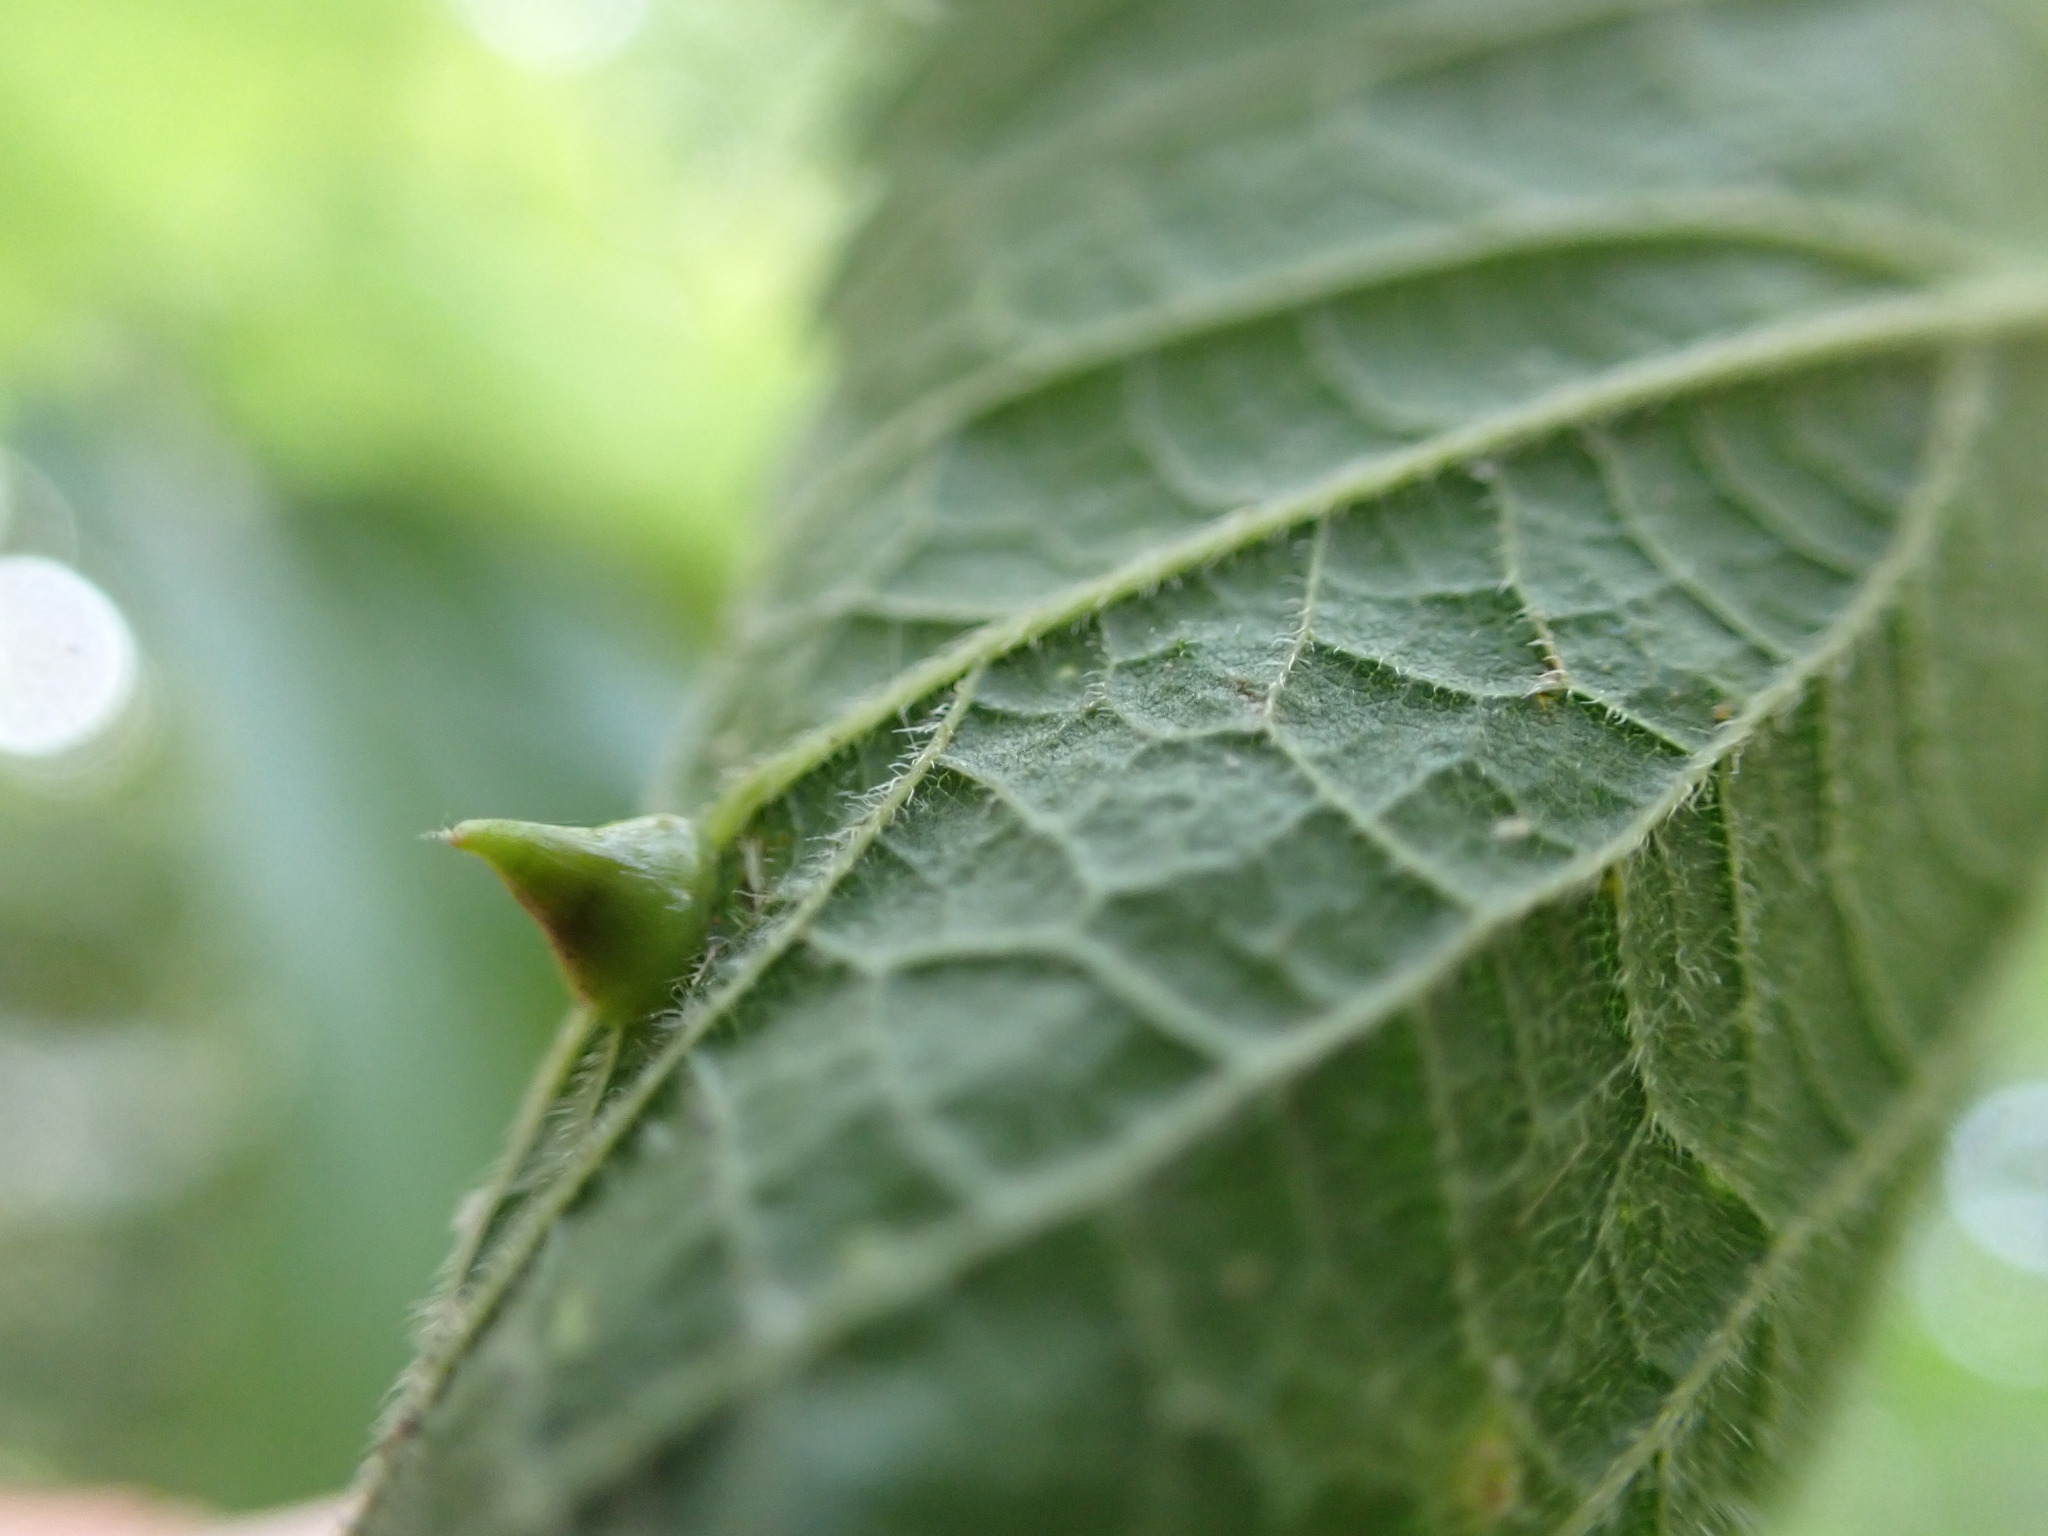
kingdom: Animalia
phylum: Arthropoda
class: Insecta
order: Diptera
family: Cecidomyiidae
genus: Celticecis
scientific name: Celticecis spiniformis
